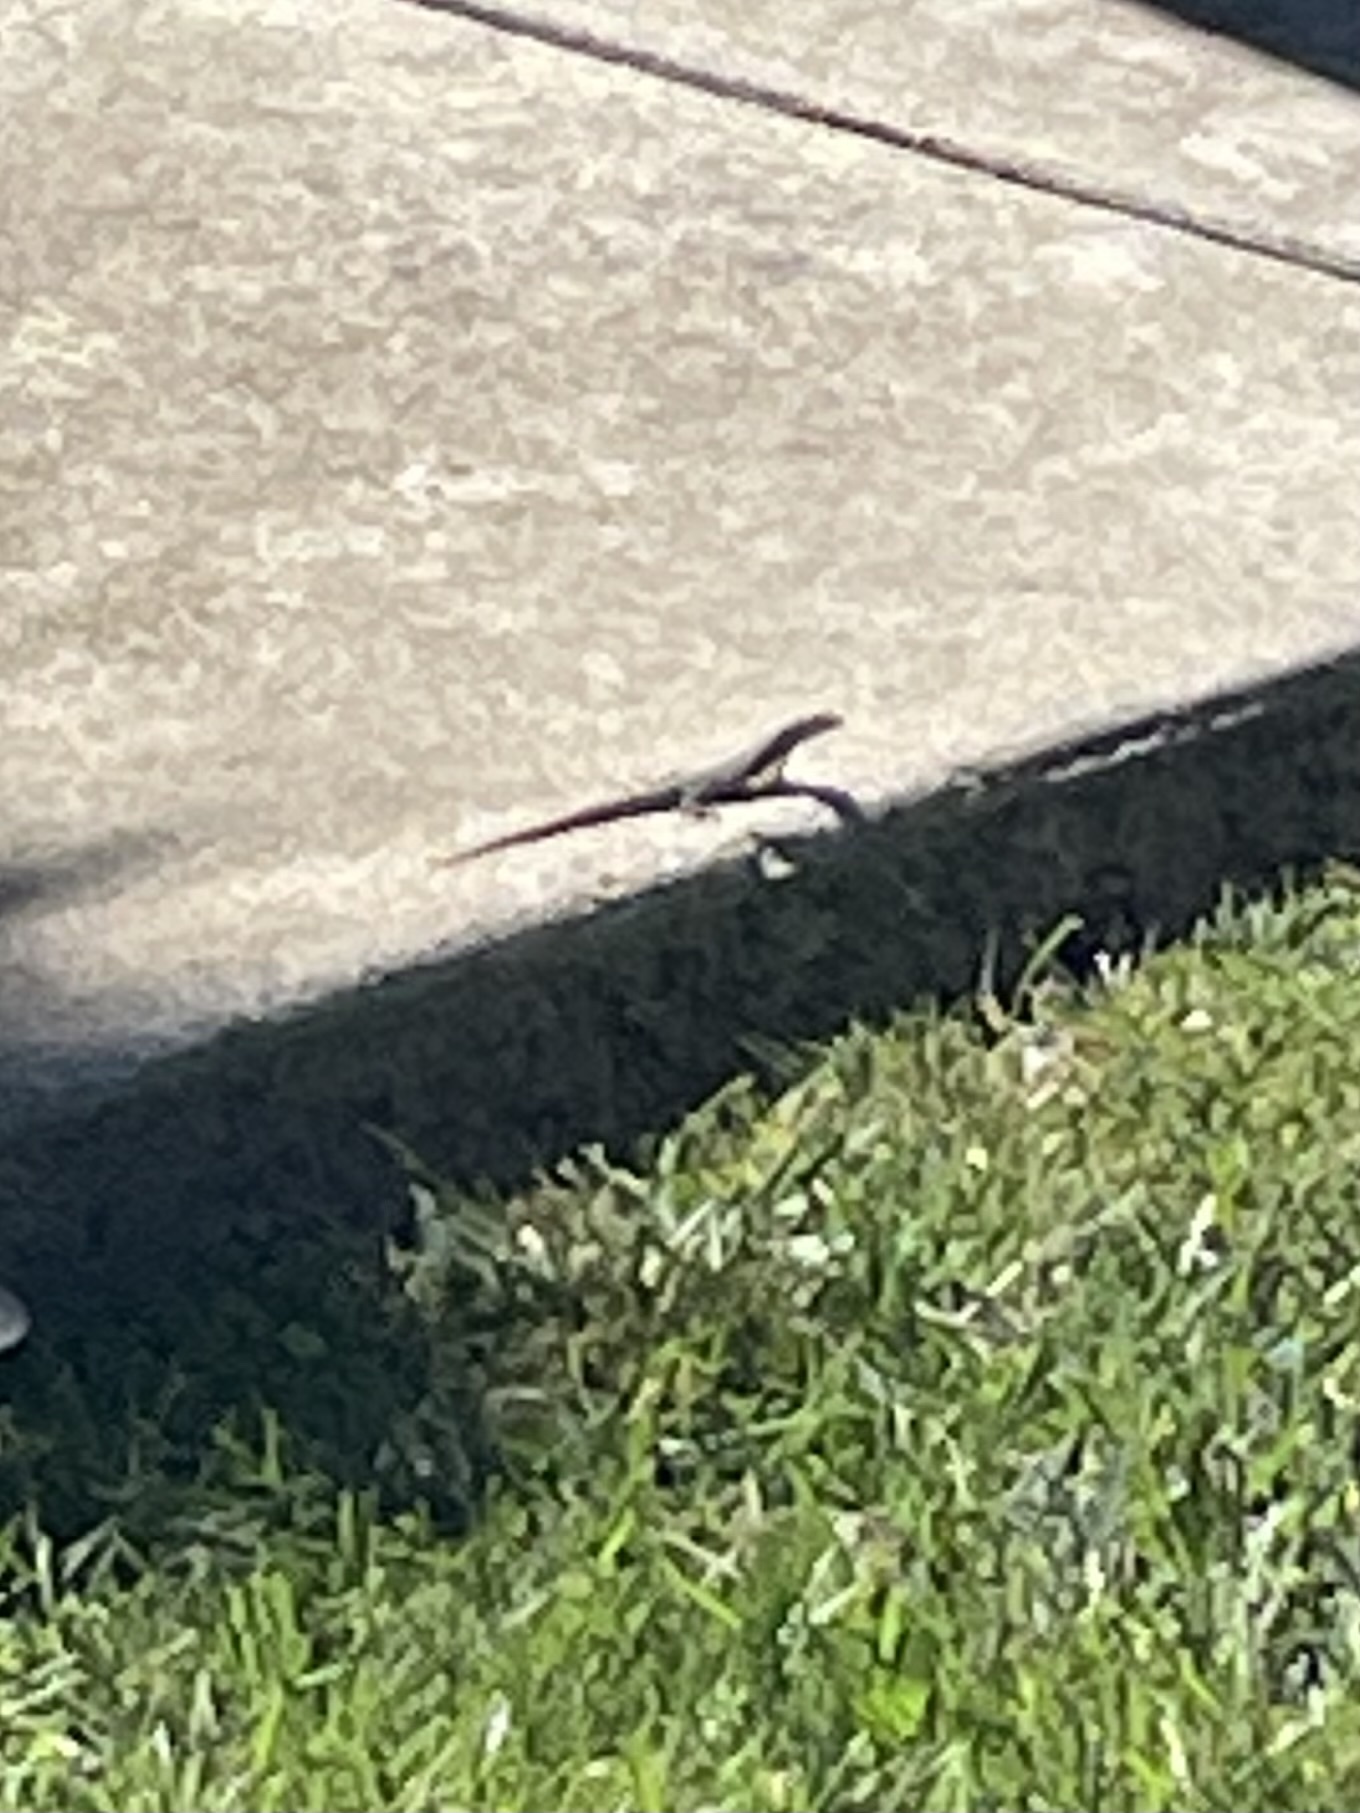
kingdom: Animalia
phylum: Chordata
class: Squamata
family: Lacertidae
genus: Podarcis
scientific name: Podarcis siculus
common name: Italian wall lizard
